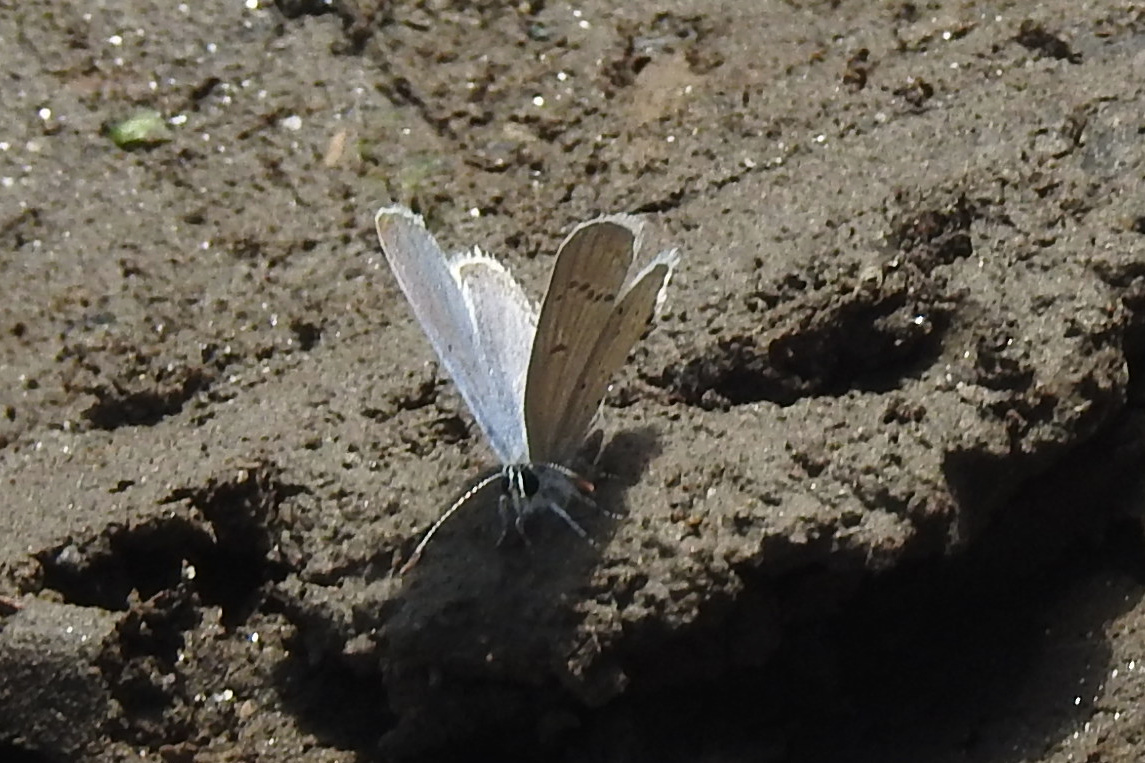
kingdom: Animalia
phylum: Arthropoda
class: Insecta
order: Lepidoptera
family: Lycaenidae
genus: Elkalyce
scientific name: Elkalyce comyntas
